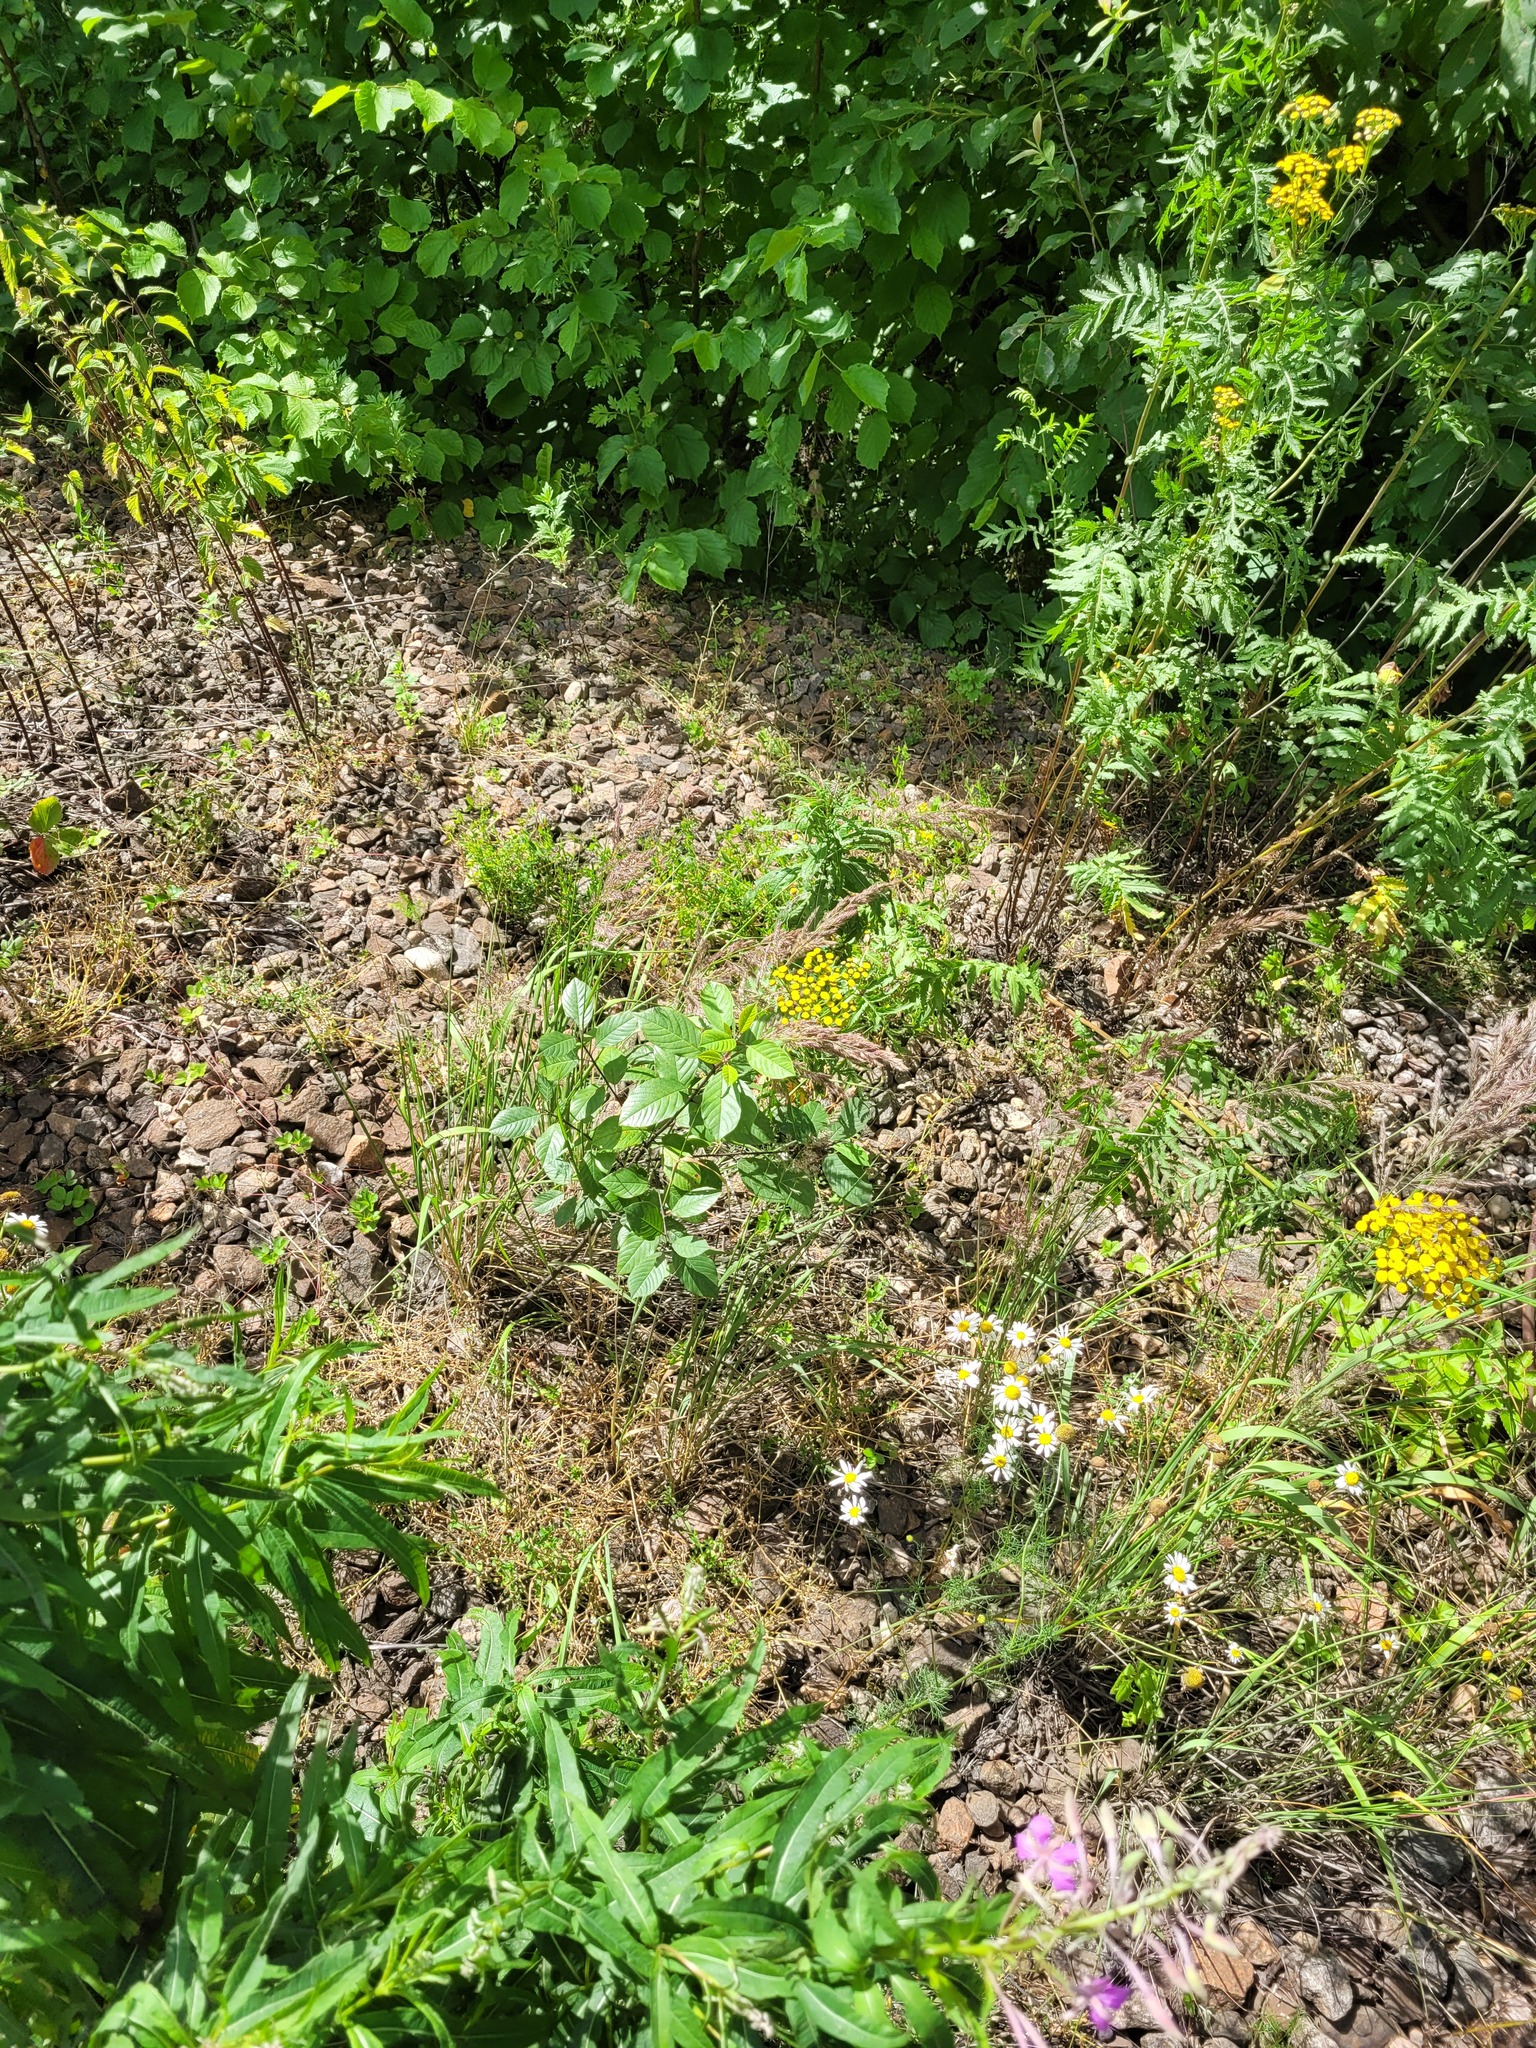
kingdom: Plantae
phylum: Tracheophyta
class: Magnoliopsida
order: Rosales
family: Rhamnaceae
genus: Frangula
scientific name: Frangula alnus
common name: Alder buckthorn
